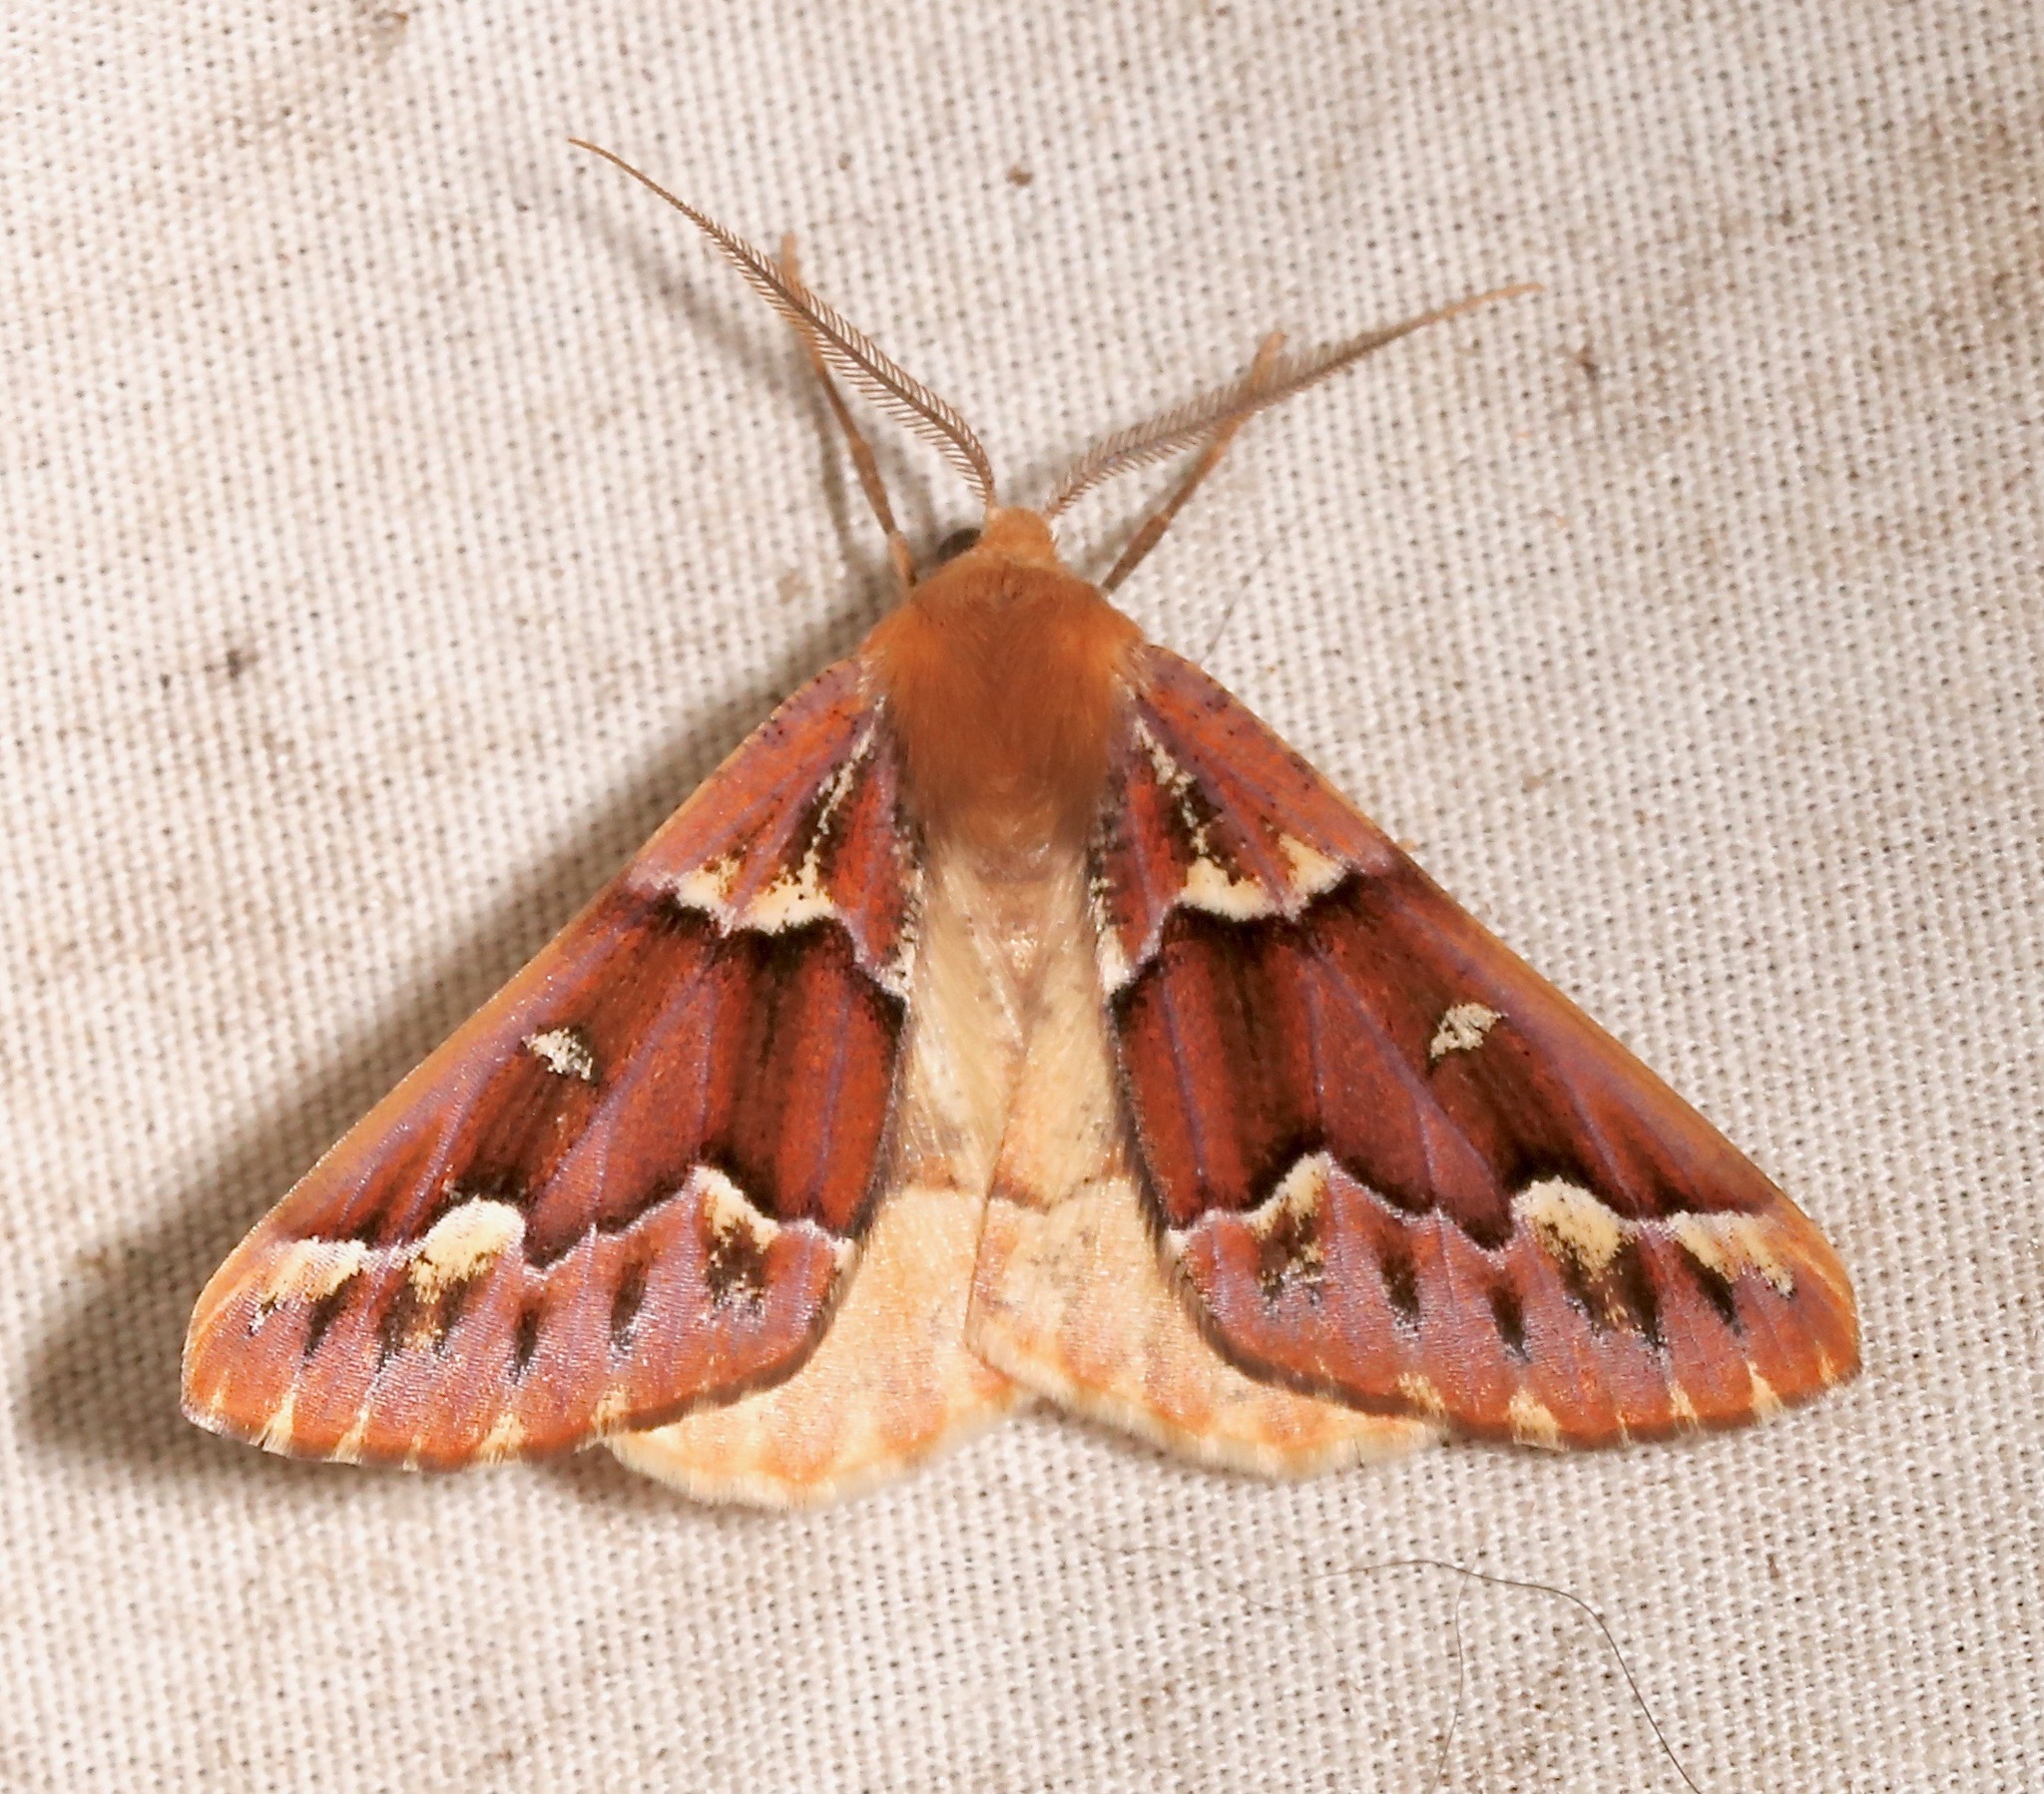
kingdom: Animalia
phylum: Arthropoda
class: Insecta
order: Lepidoptera
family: Geometridae
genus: Caripeta
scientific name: Caripeta aequaliaria
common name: Red girdle moth
